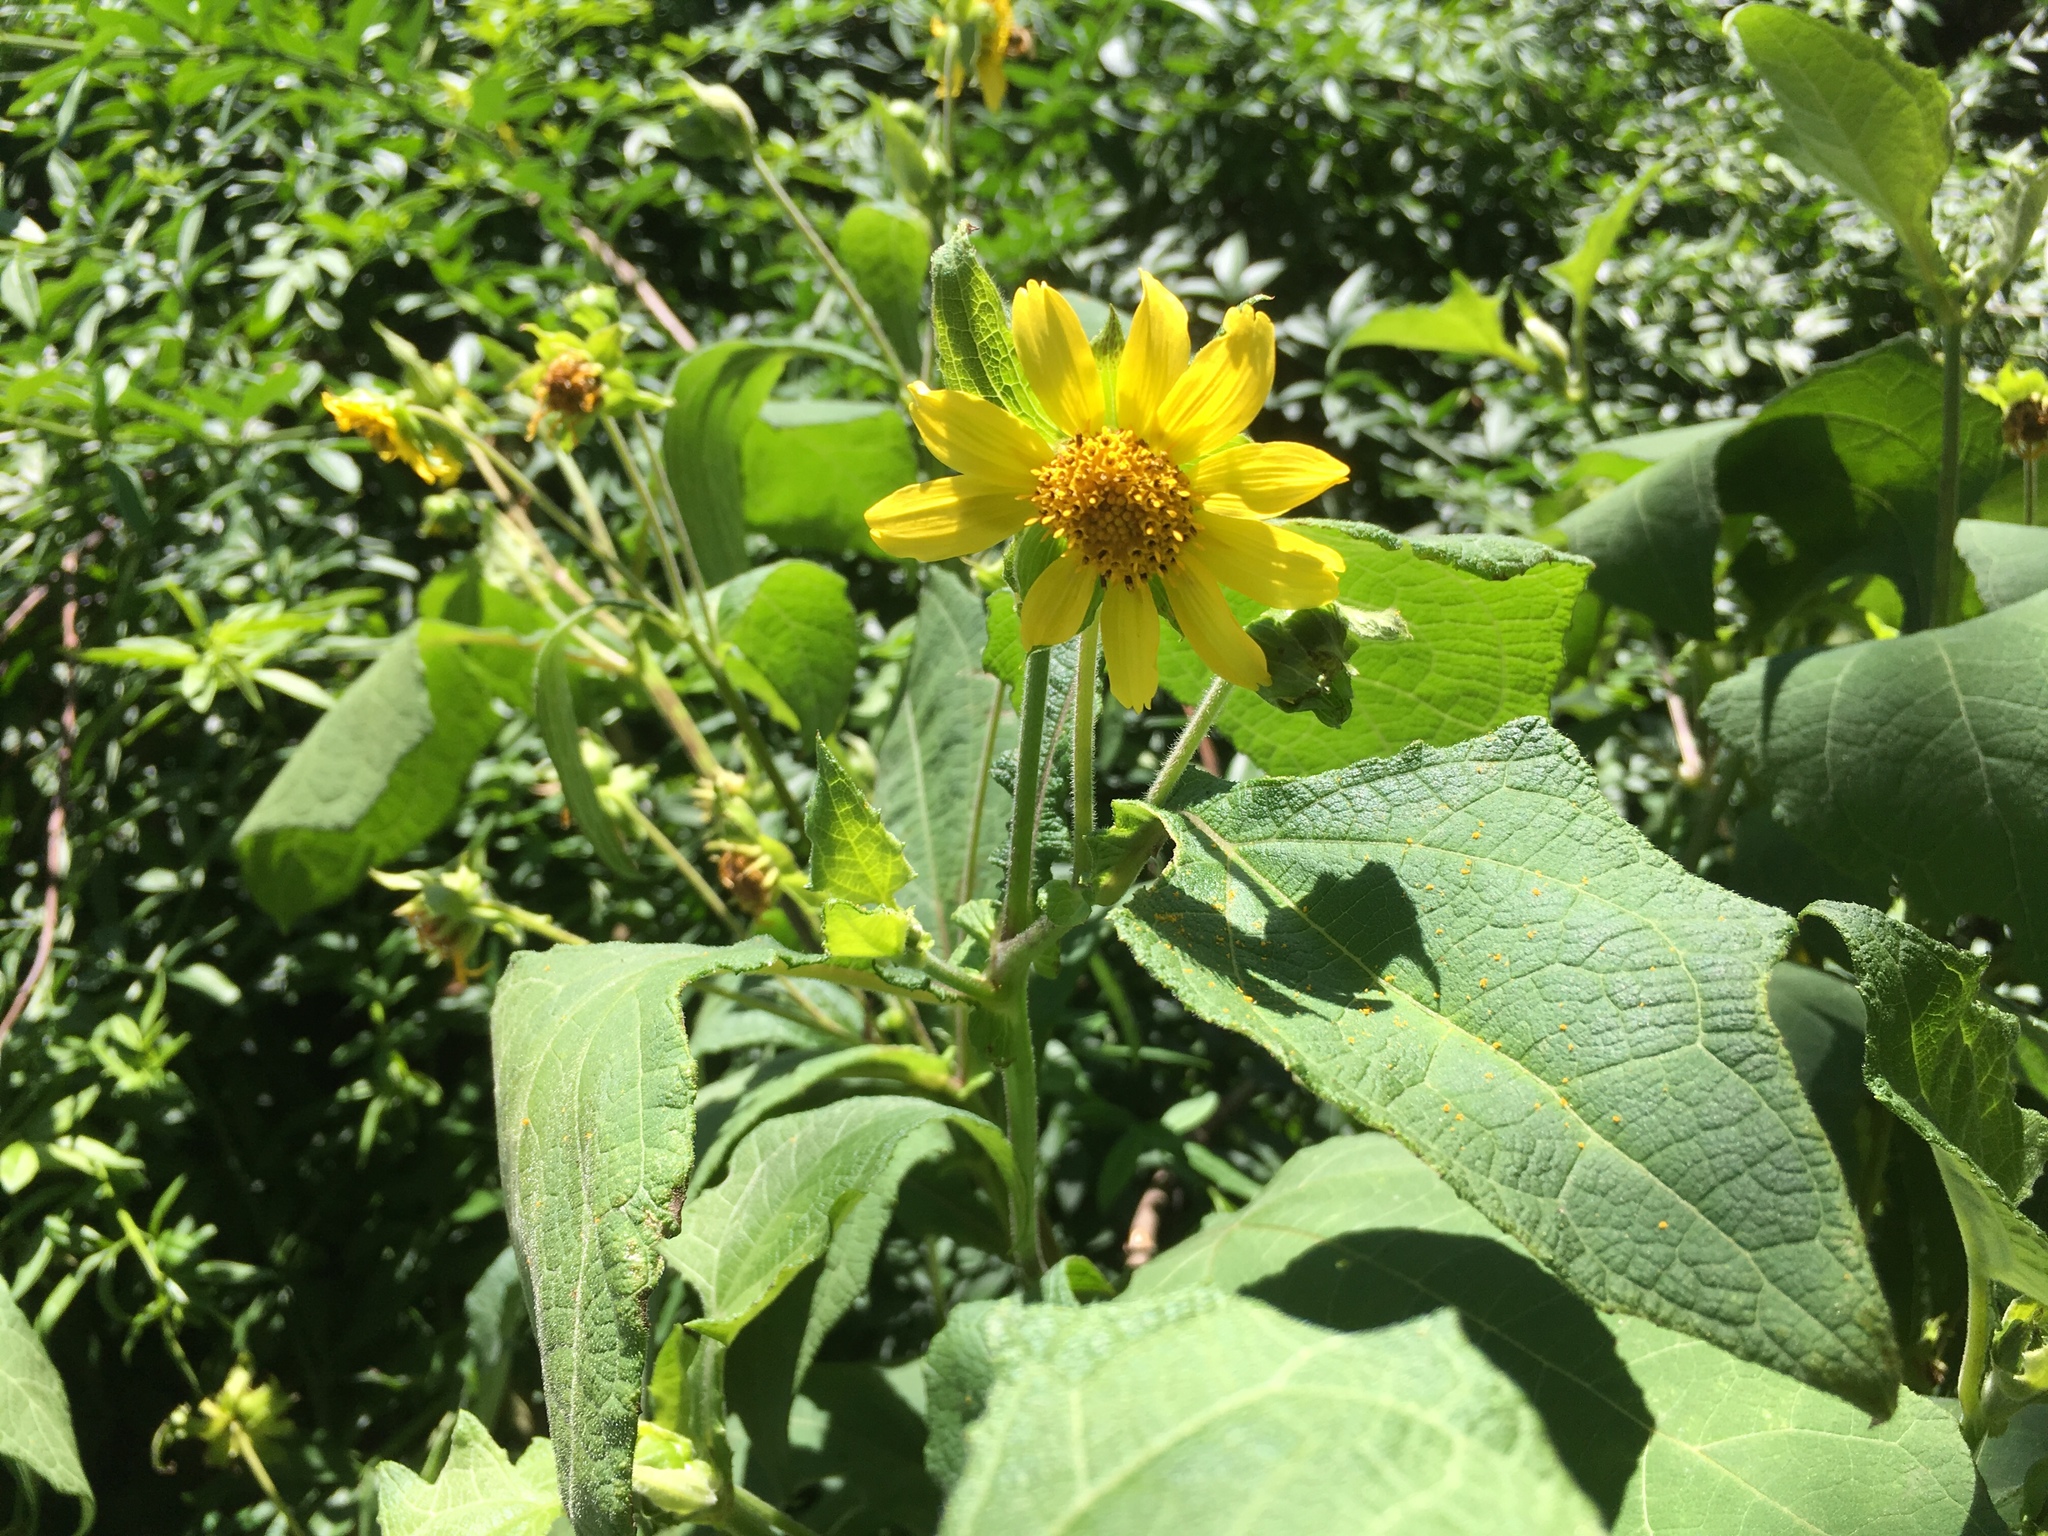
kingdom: Plantae
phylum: Tracheophyta
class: Magnoliopsida
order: Asterales
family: Asteraceae
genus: Smallanthus
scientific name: Smallanthus maculatus
